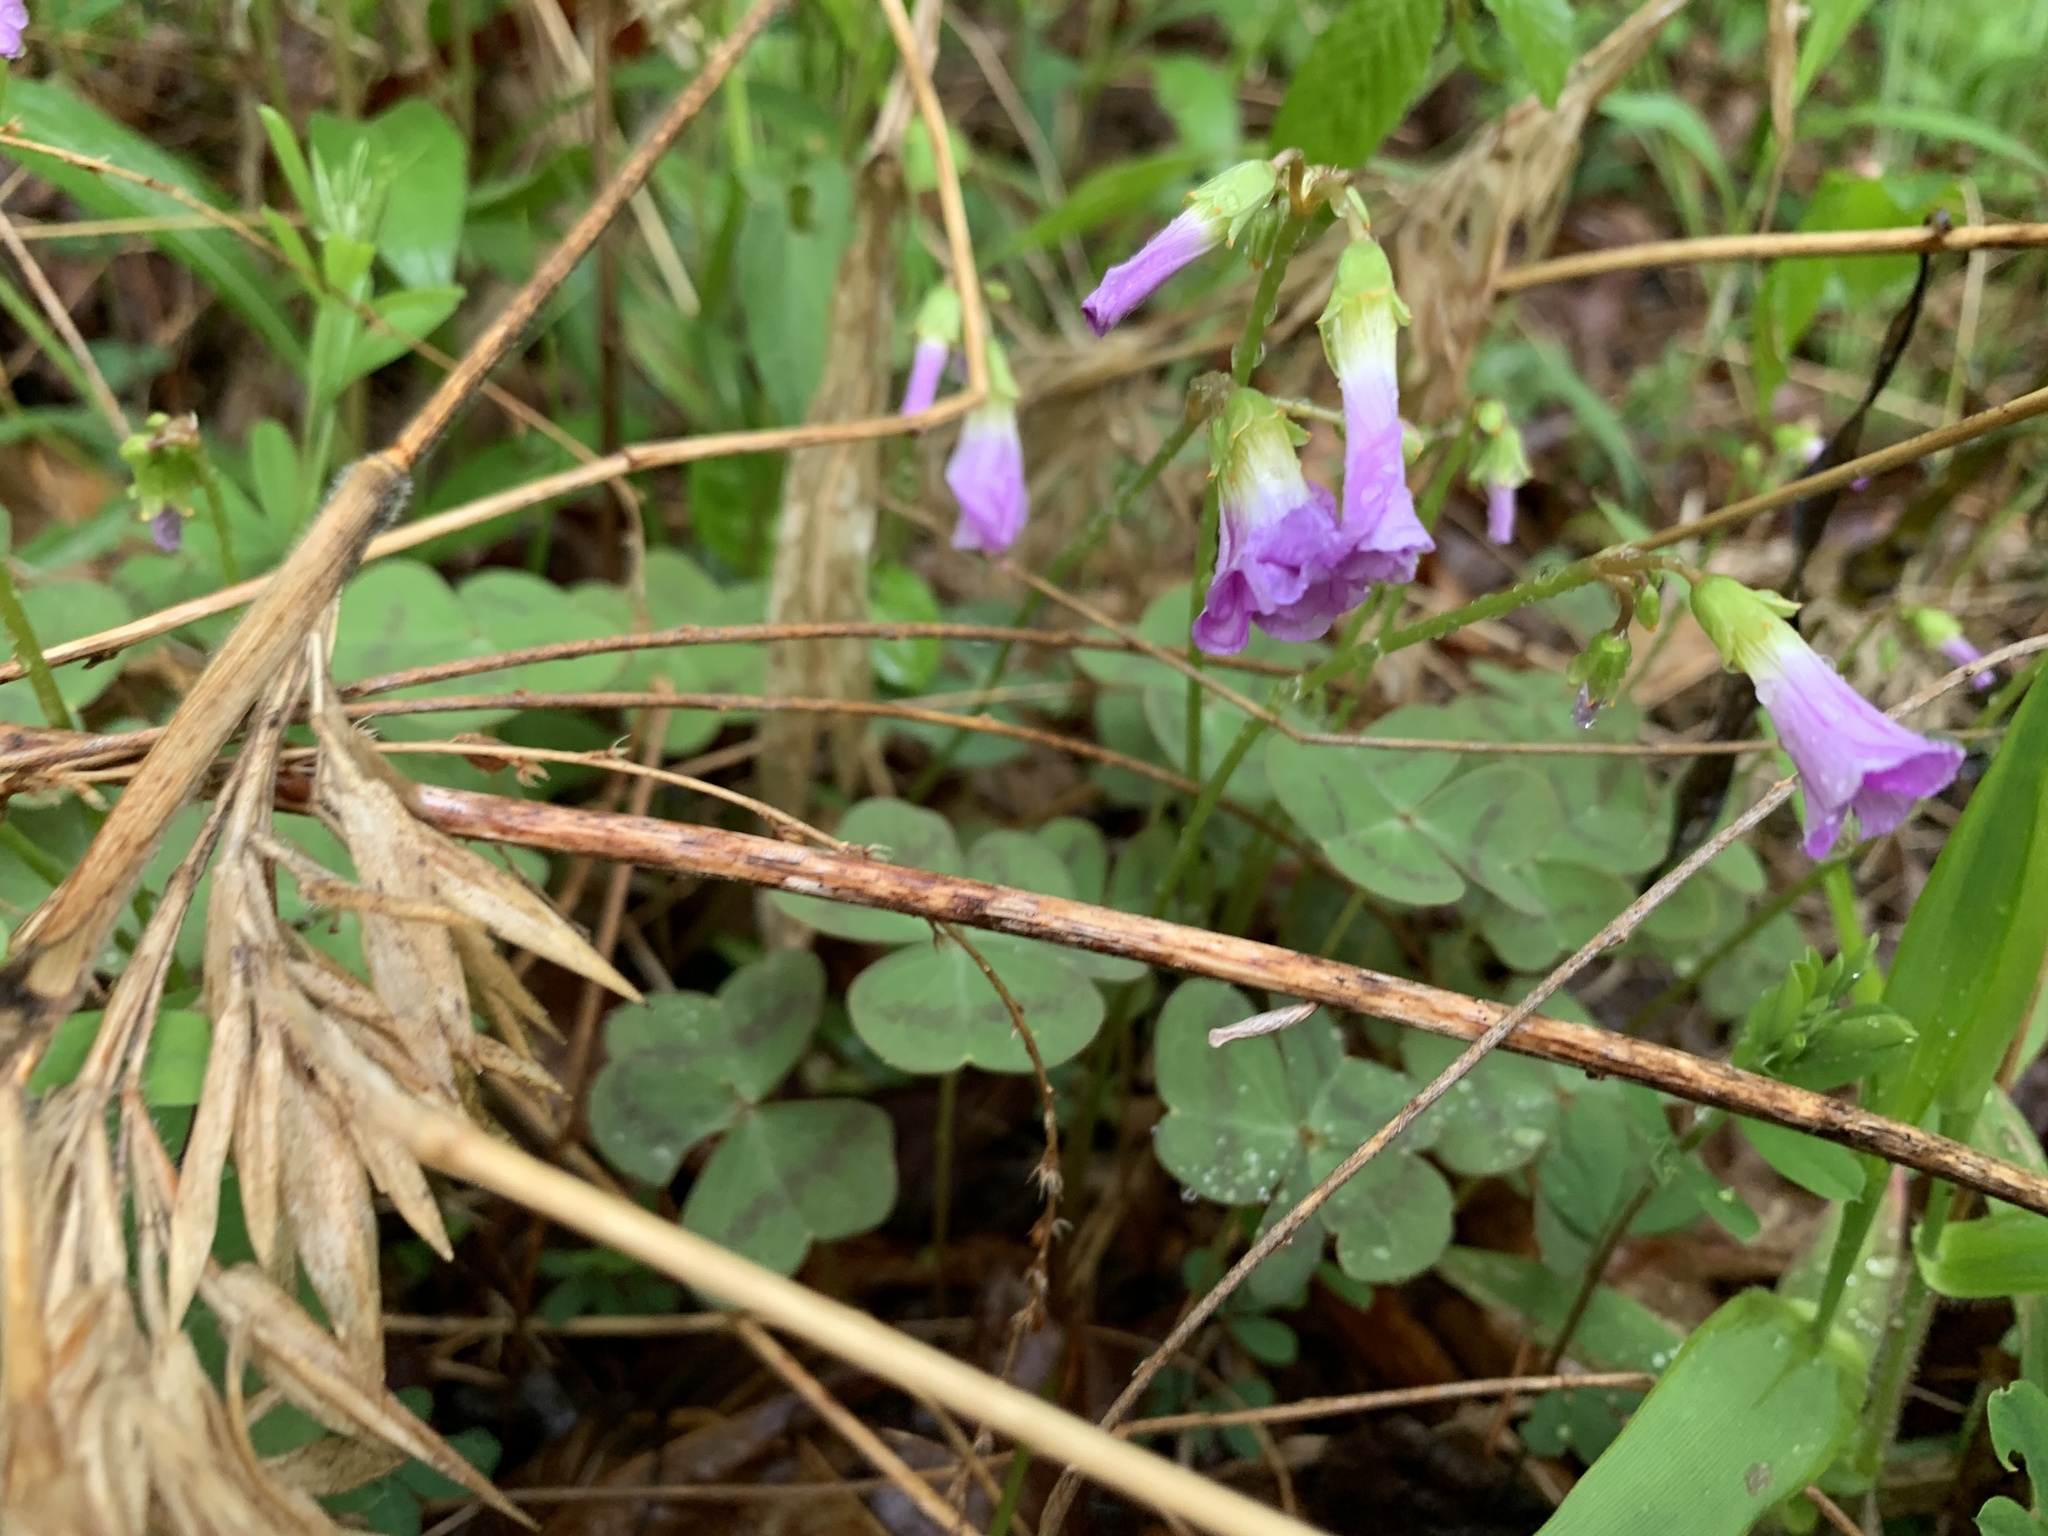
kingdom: Plantae
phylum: Tracheophyta
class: Magnoliopsida
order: Oxalidales
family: Oxalidaceae
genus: Oxalis
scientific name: Oxalis violacea
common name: Violet wood-sorrel
